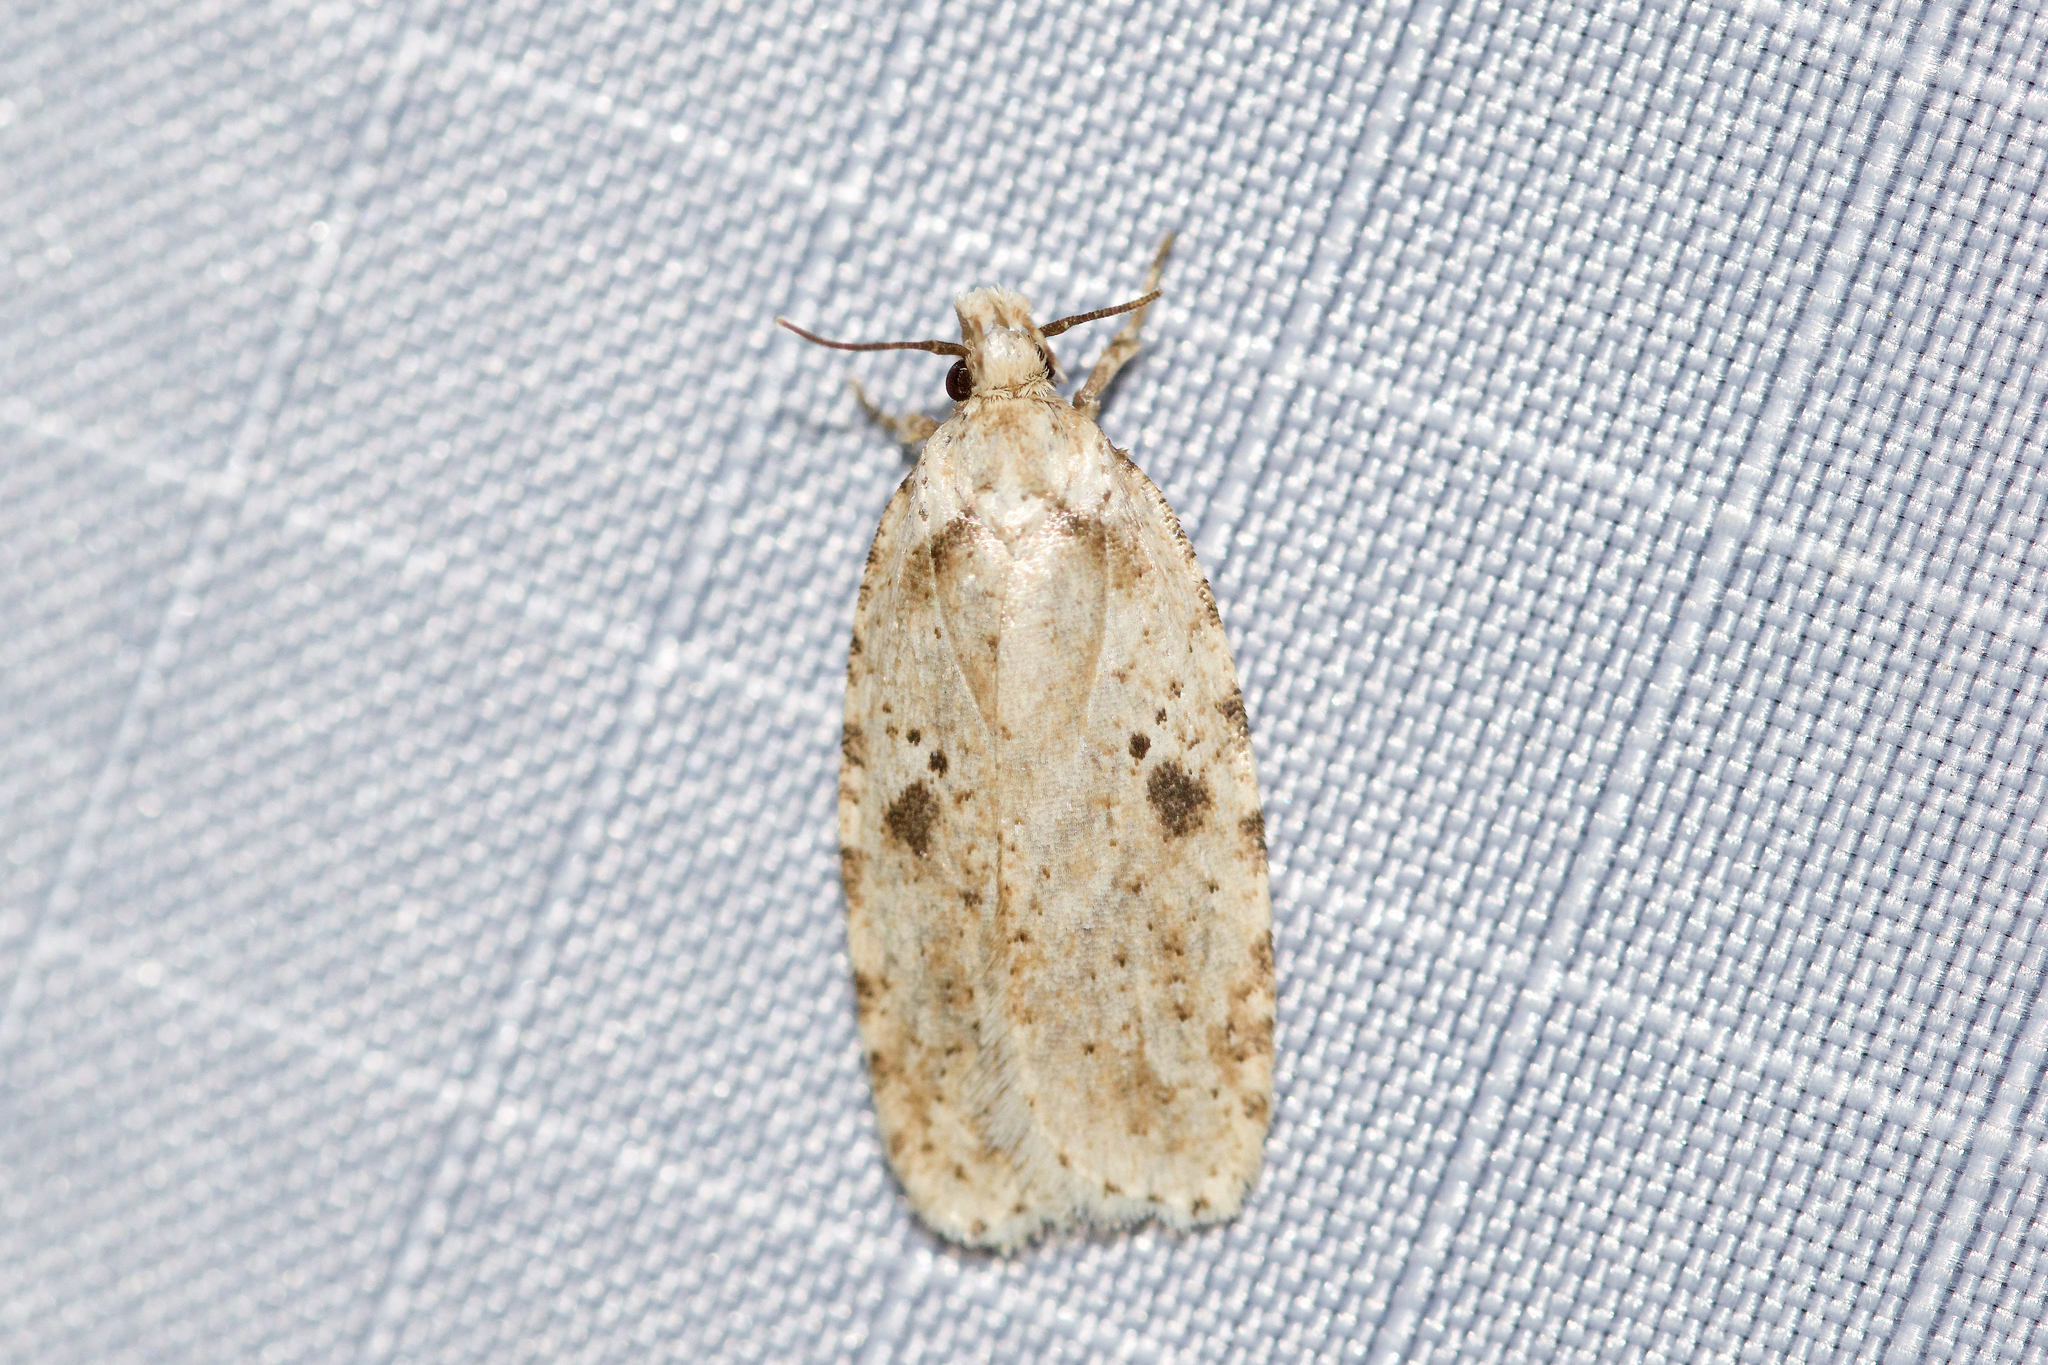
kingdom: Animalia
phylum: Arthropoda
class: Insecta
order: Lepidoptera
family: Depressariidae
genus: Agonopterix
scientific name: Agonopterix canadensis
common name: Canadian agonopterix moth
